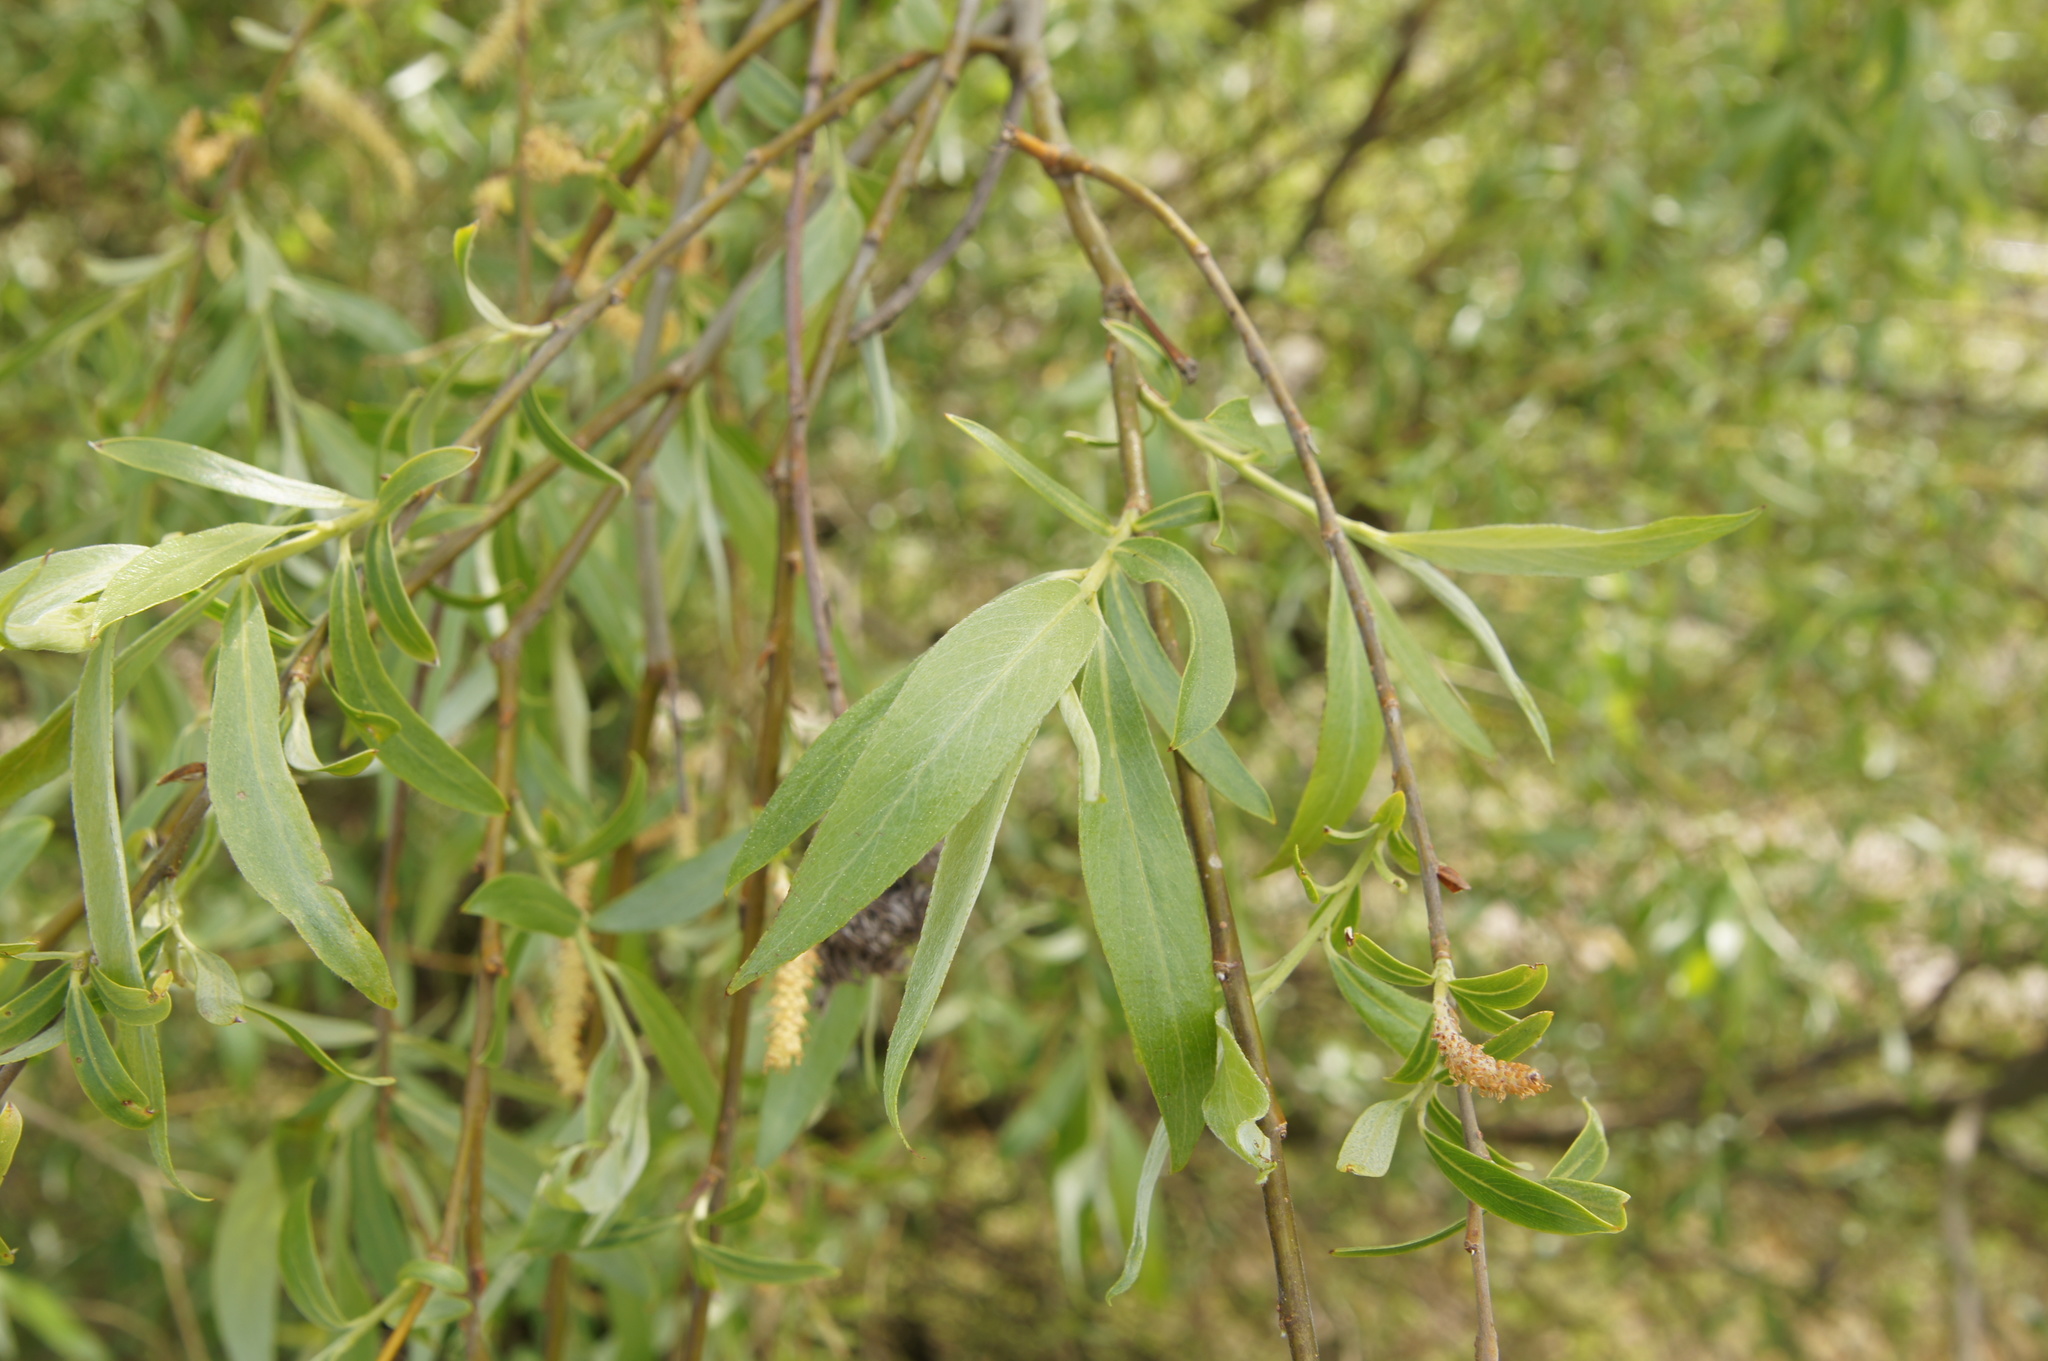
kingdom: Plantae
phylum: Tracheophyta
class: Magnoliopsida
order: Malpighiales
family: Salicaceae
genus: Salix
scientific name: Salix alba
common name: White willow
